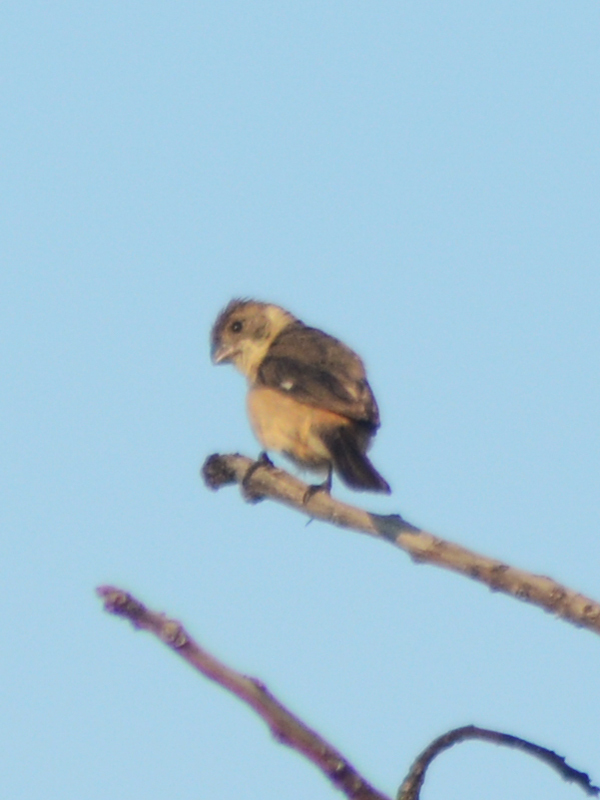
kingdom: Animalia
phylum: Chordata
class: Aves
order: Passeriformes
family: Thraupidae
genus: Sporophila
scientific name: Sporophila torqueola
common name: White-collared seedeater
